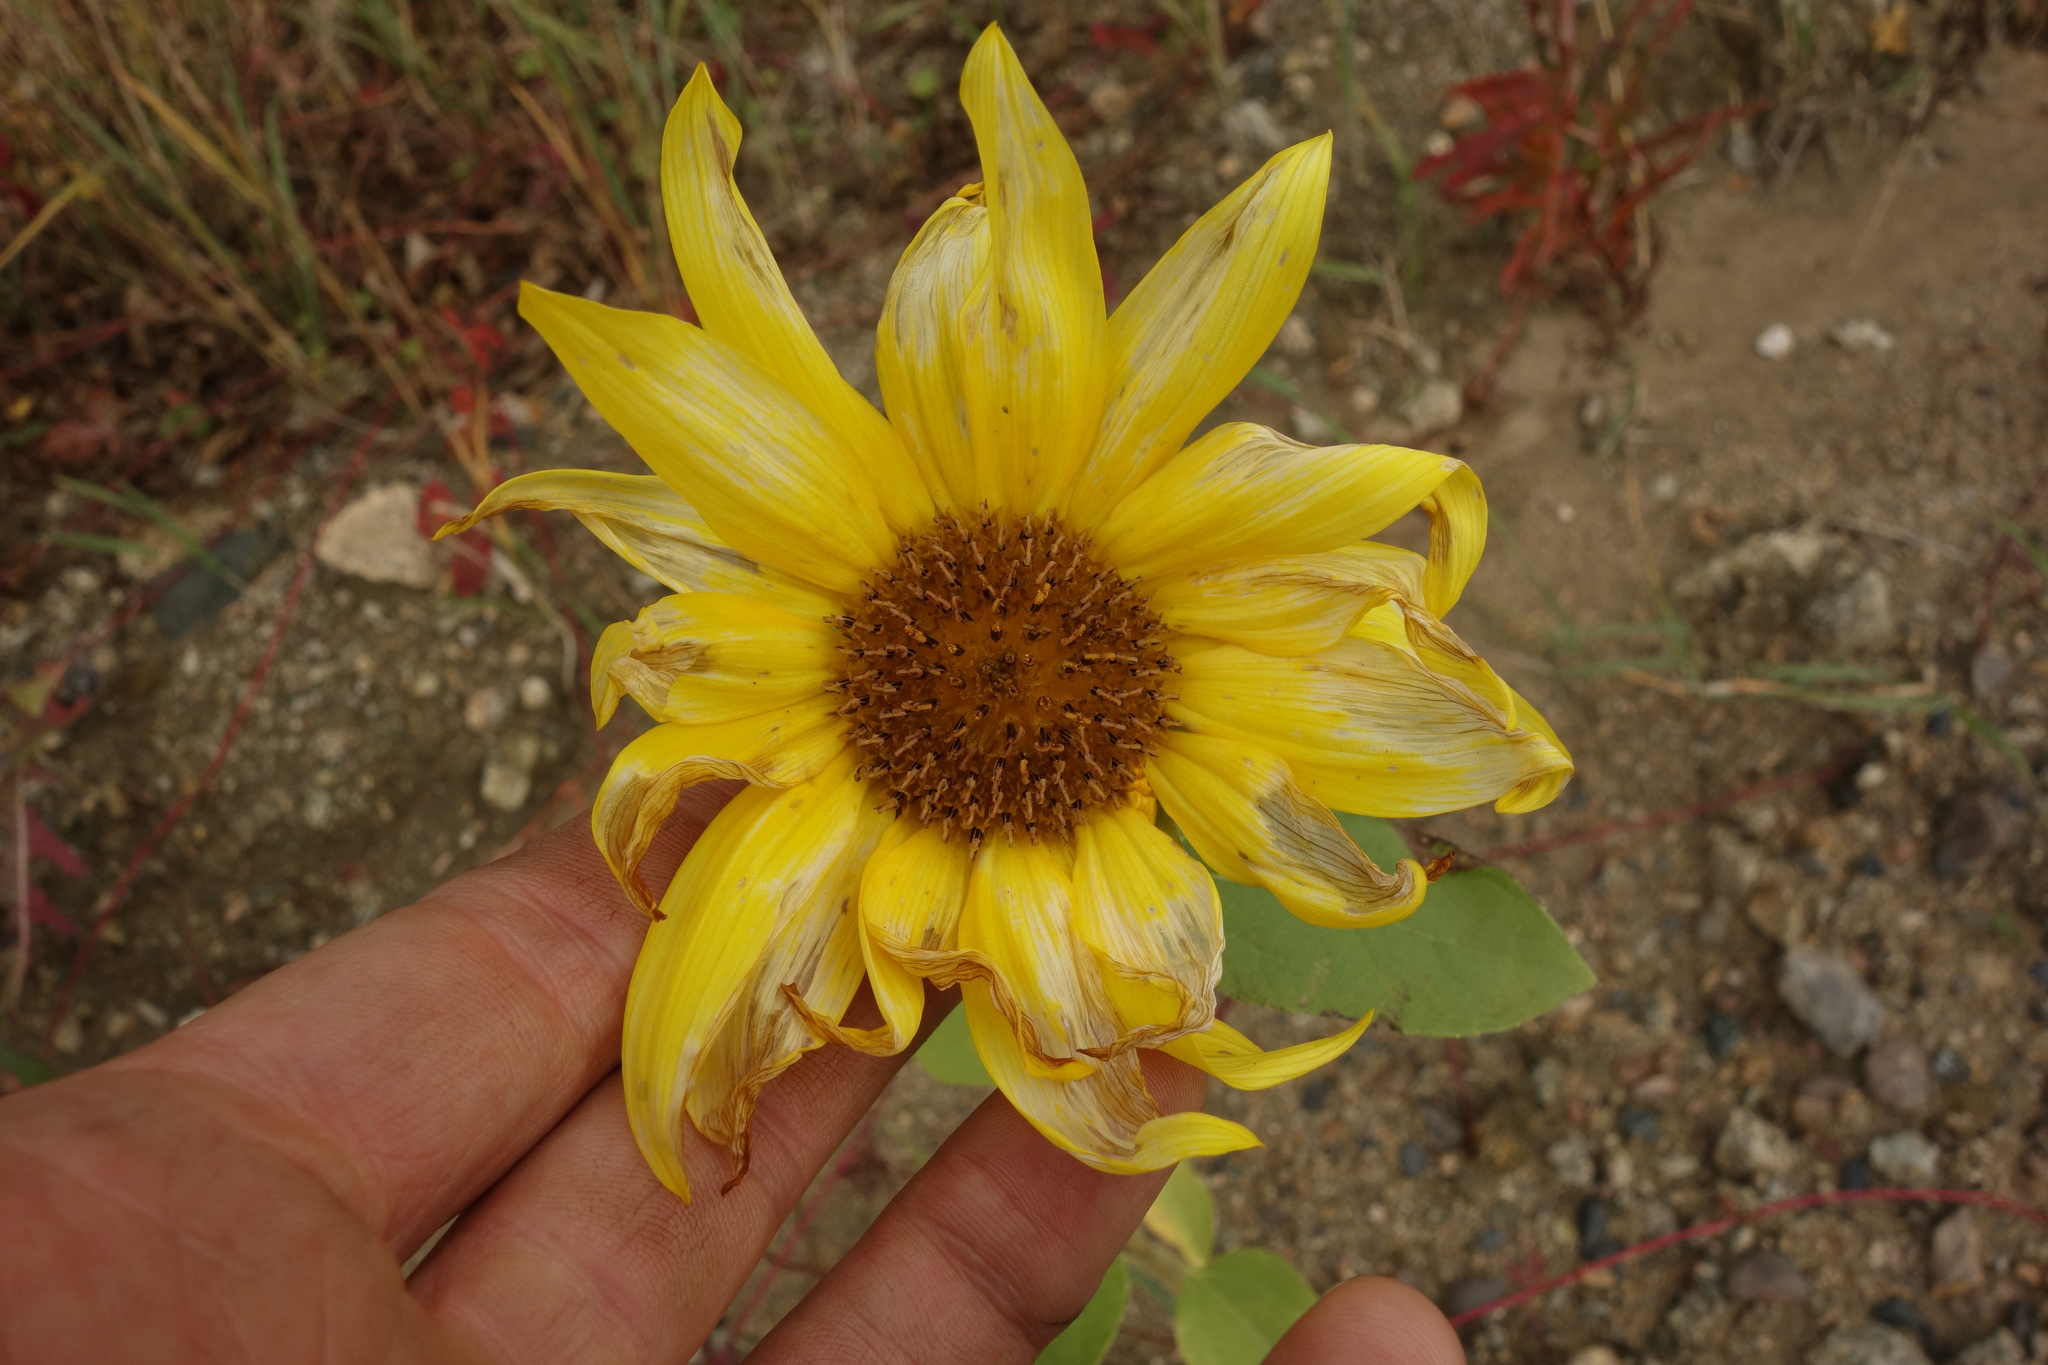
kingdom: Plantae
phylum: Tracheophyta
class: Magnoliopsida
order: Asterales
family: Asteraceae
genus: Helianthus
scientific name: Helianthus annuus
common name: Sunflower
